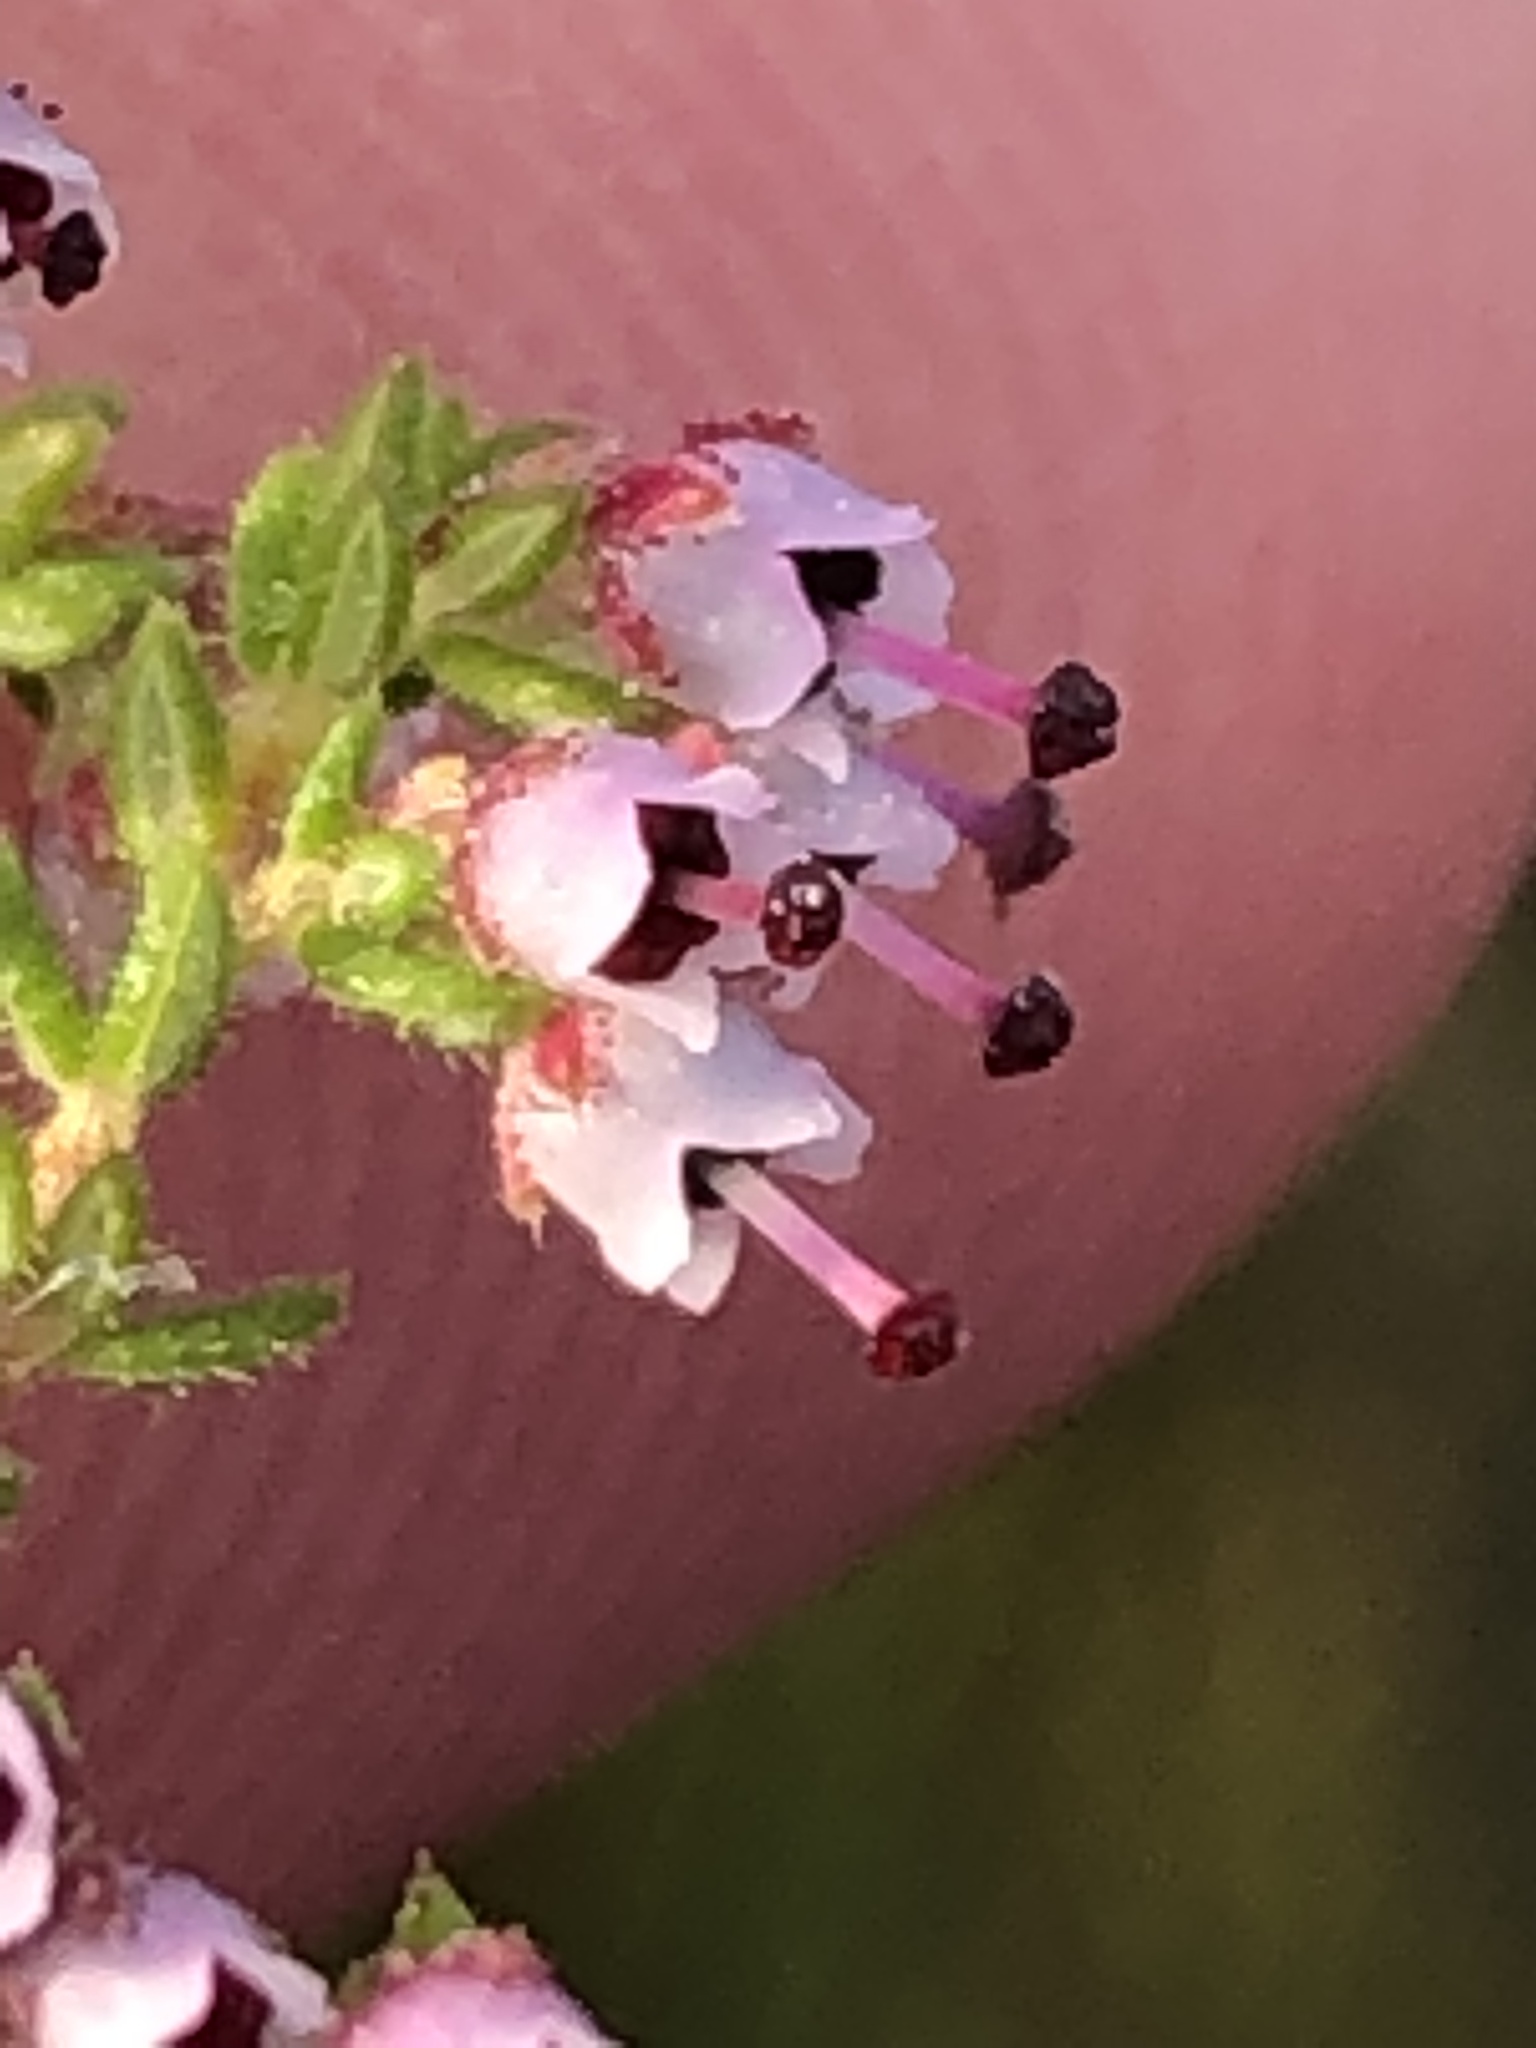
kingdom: Plantae
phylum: Tracheophyta
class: Magnoliopsida
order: Ericales
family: Ericaceae
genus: Erica
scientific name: Erica hispidula
